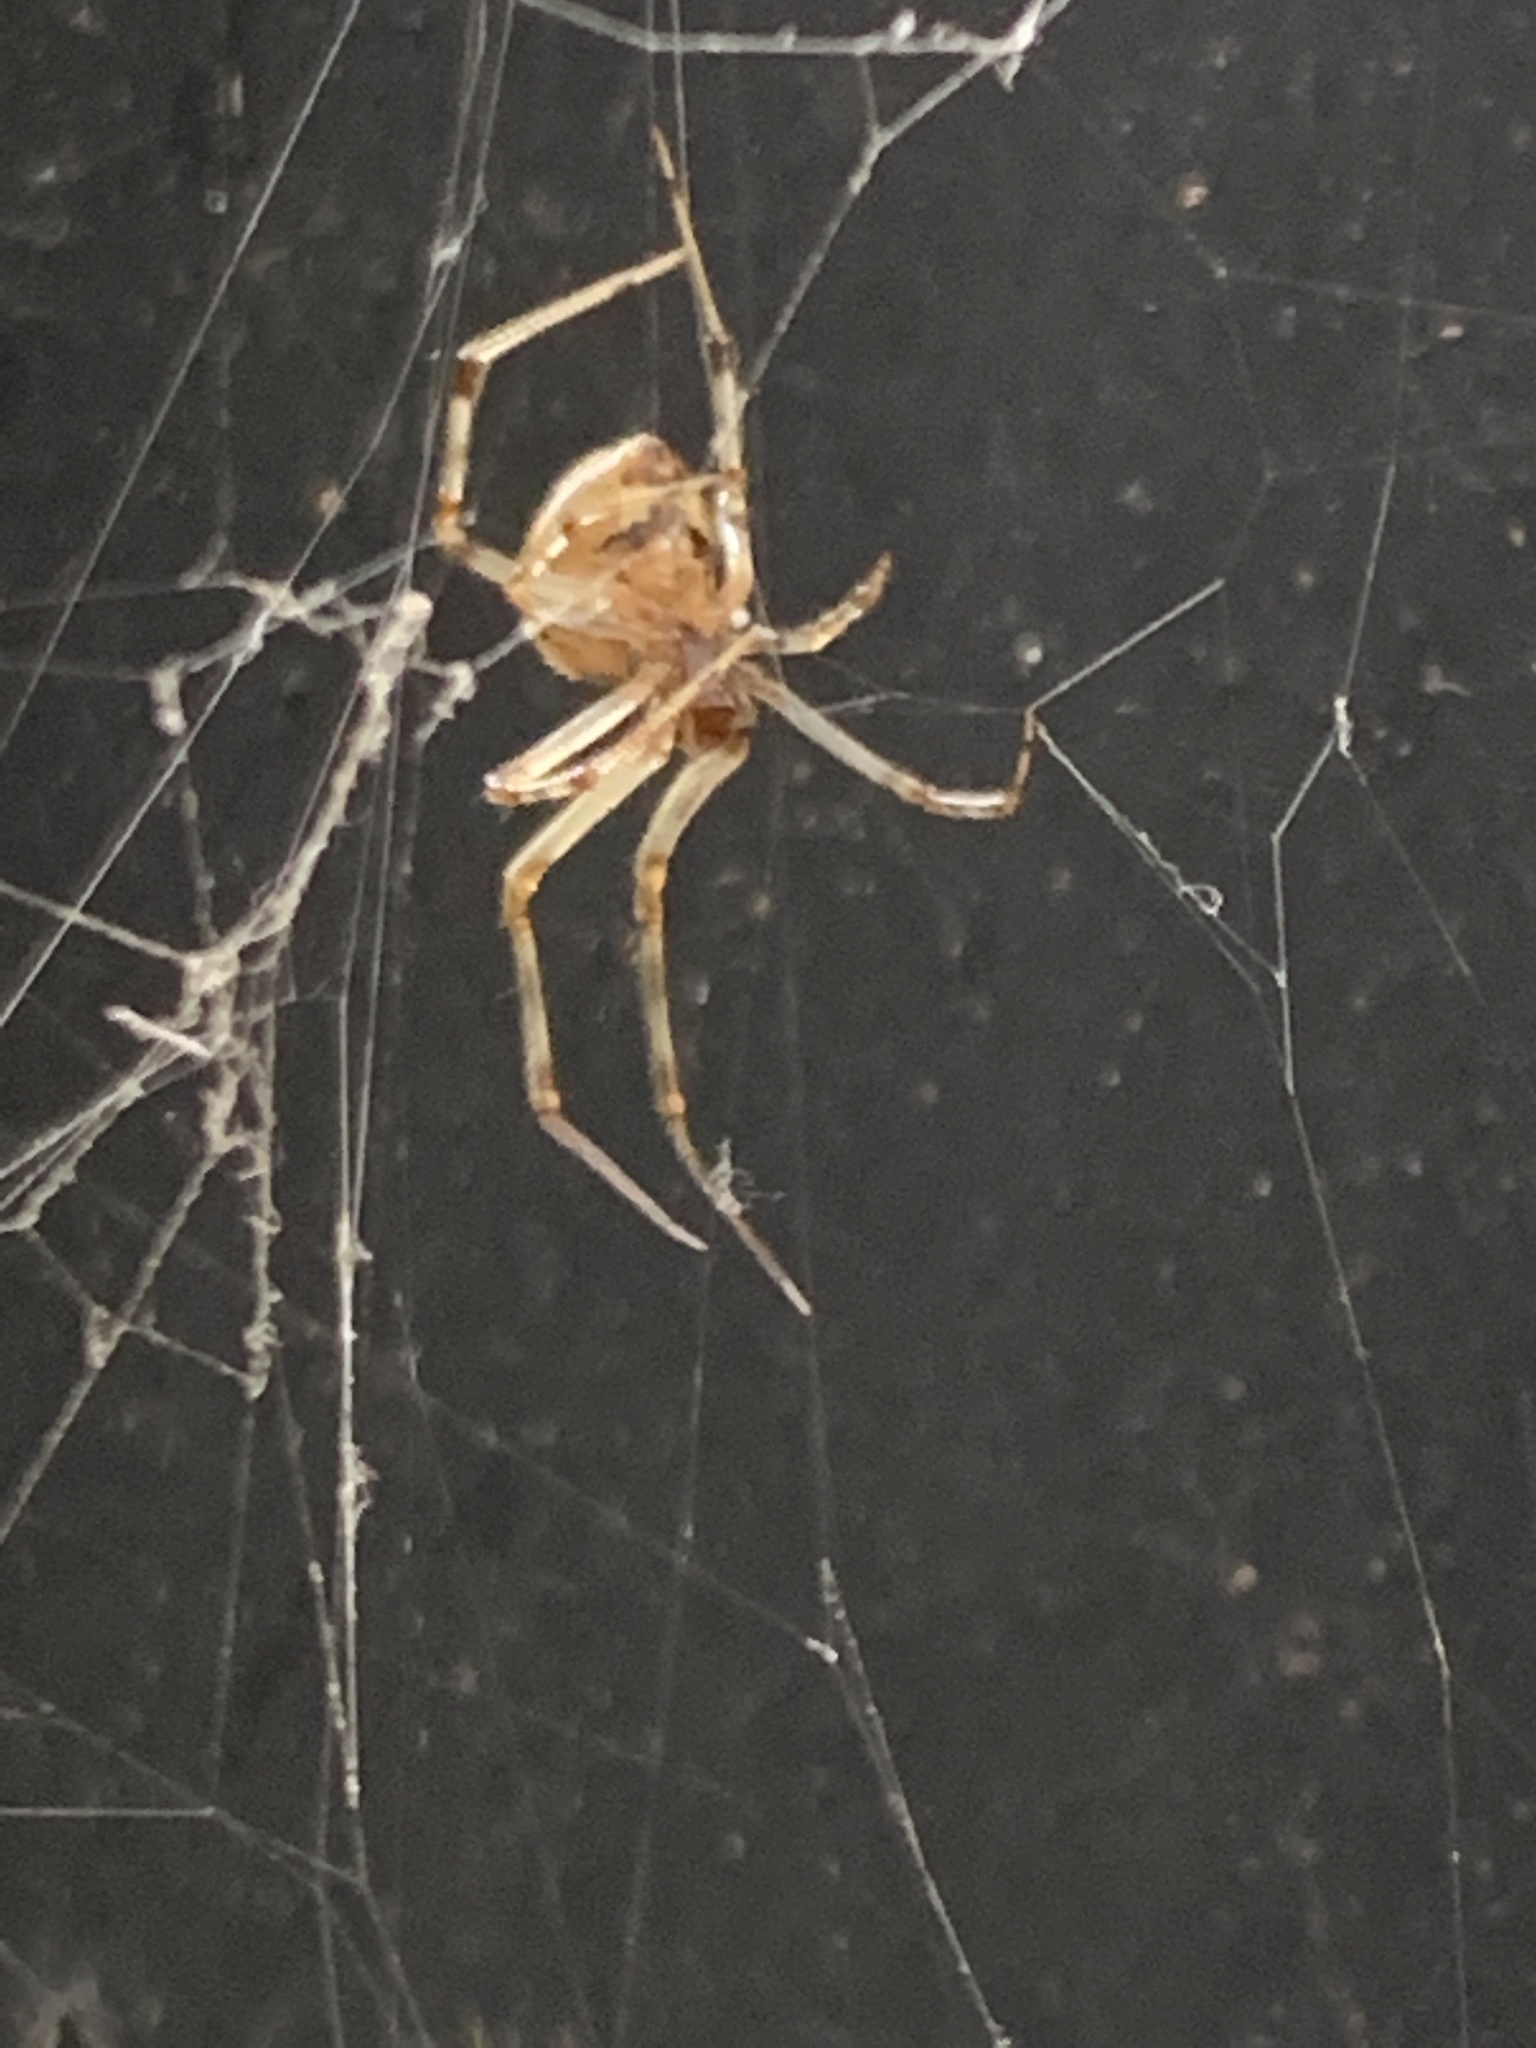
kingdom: Animalia
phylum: Arthropoda
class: Arachnida
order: Araneae
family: Theridiidae
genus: Parasteatoda
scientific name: Parasteatoda tepidariorum
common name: Common house spider
